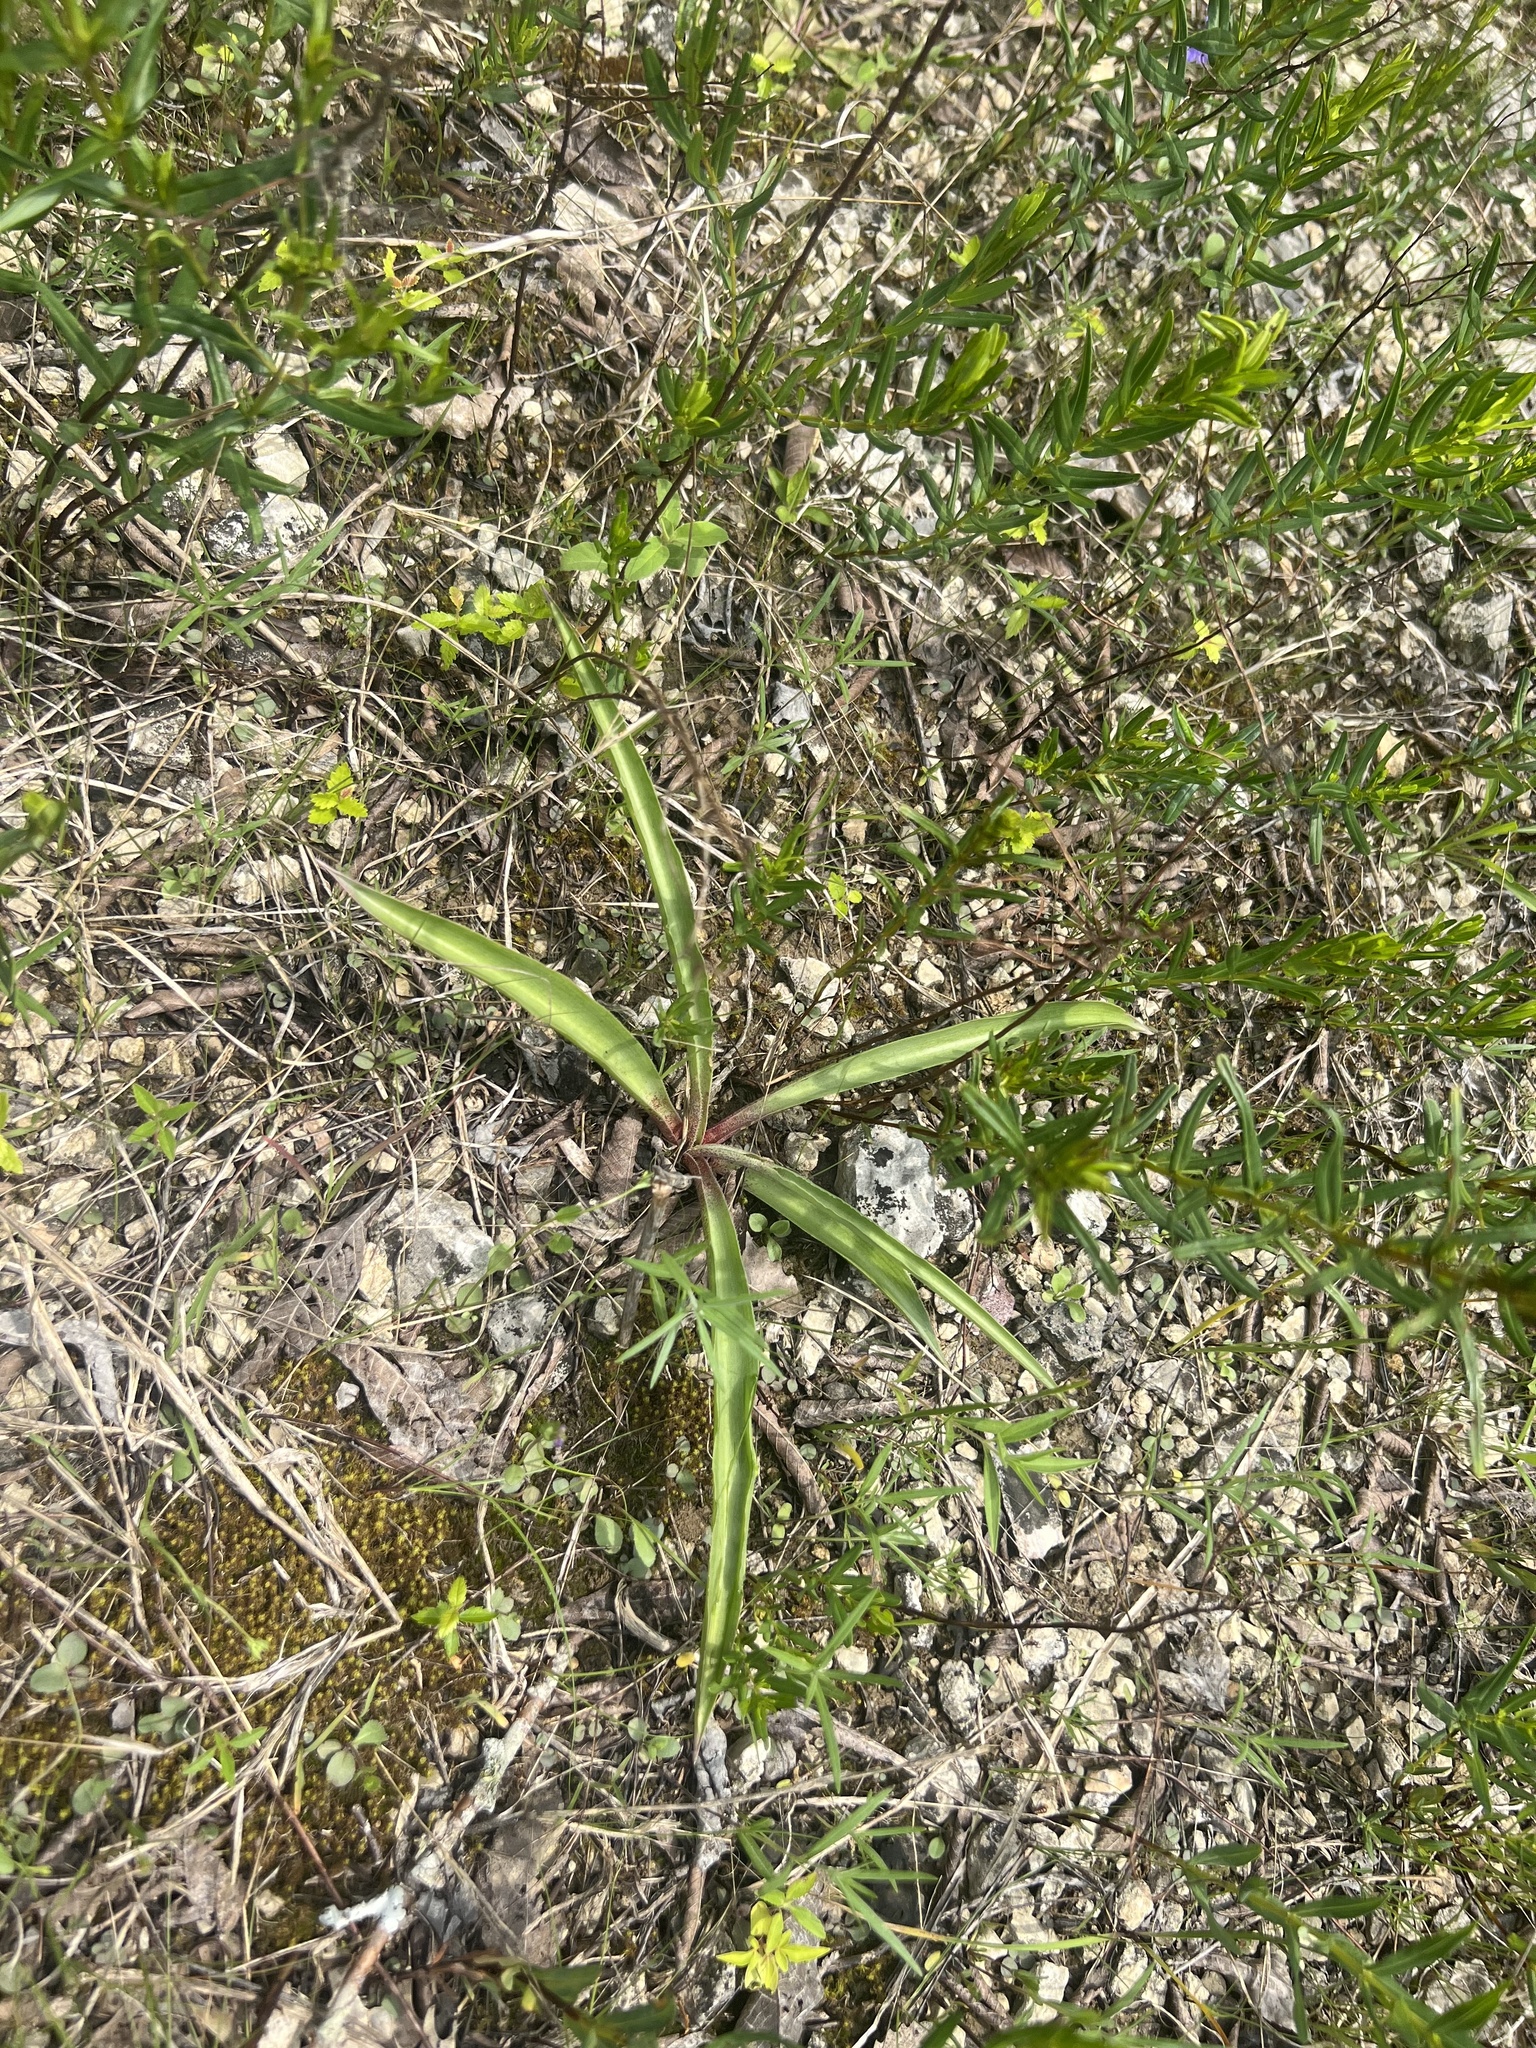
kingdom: Plantae
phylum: Tracheophyta
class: Liliopsida
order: Asparagales
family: Asparagaceae
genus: Agave
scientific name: Agave virginica
